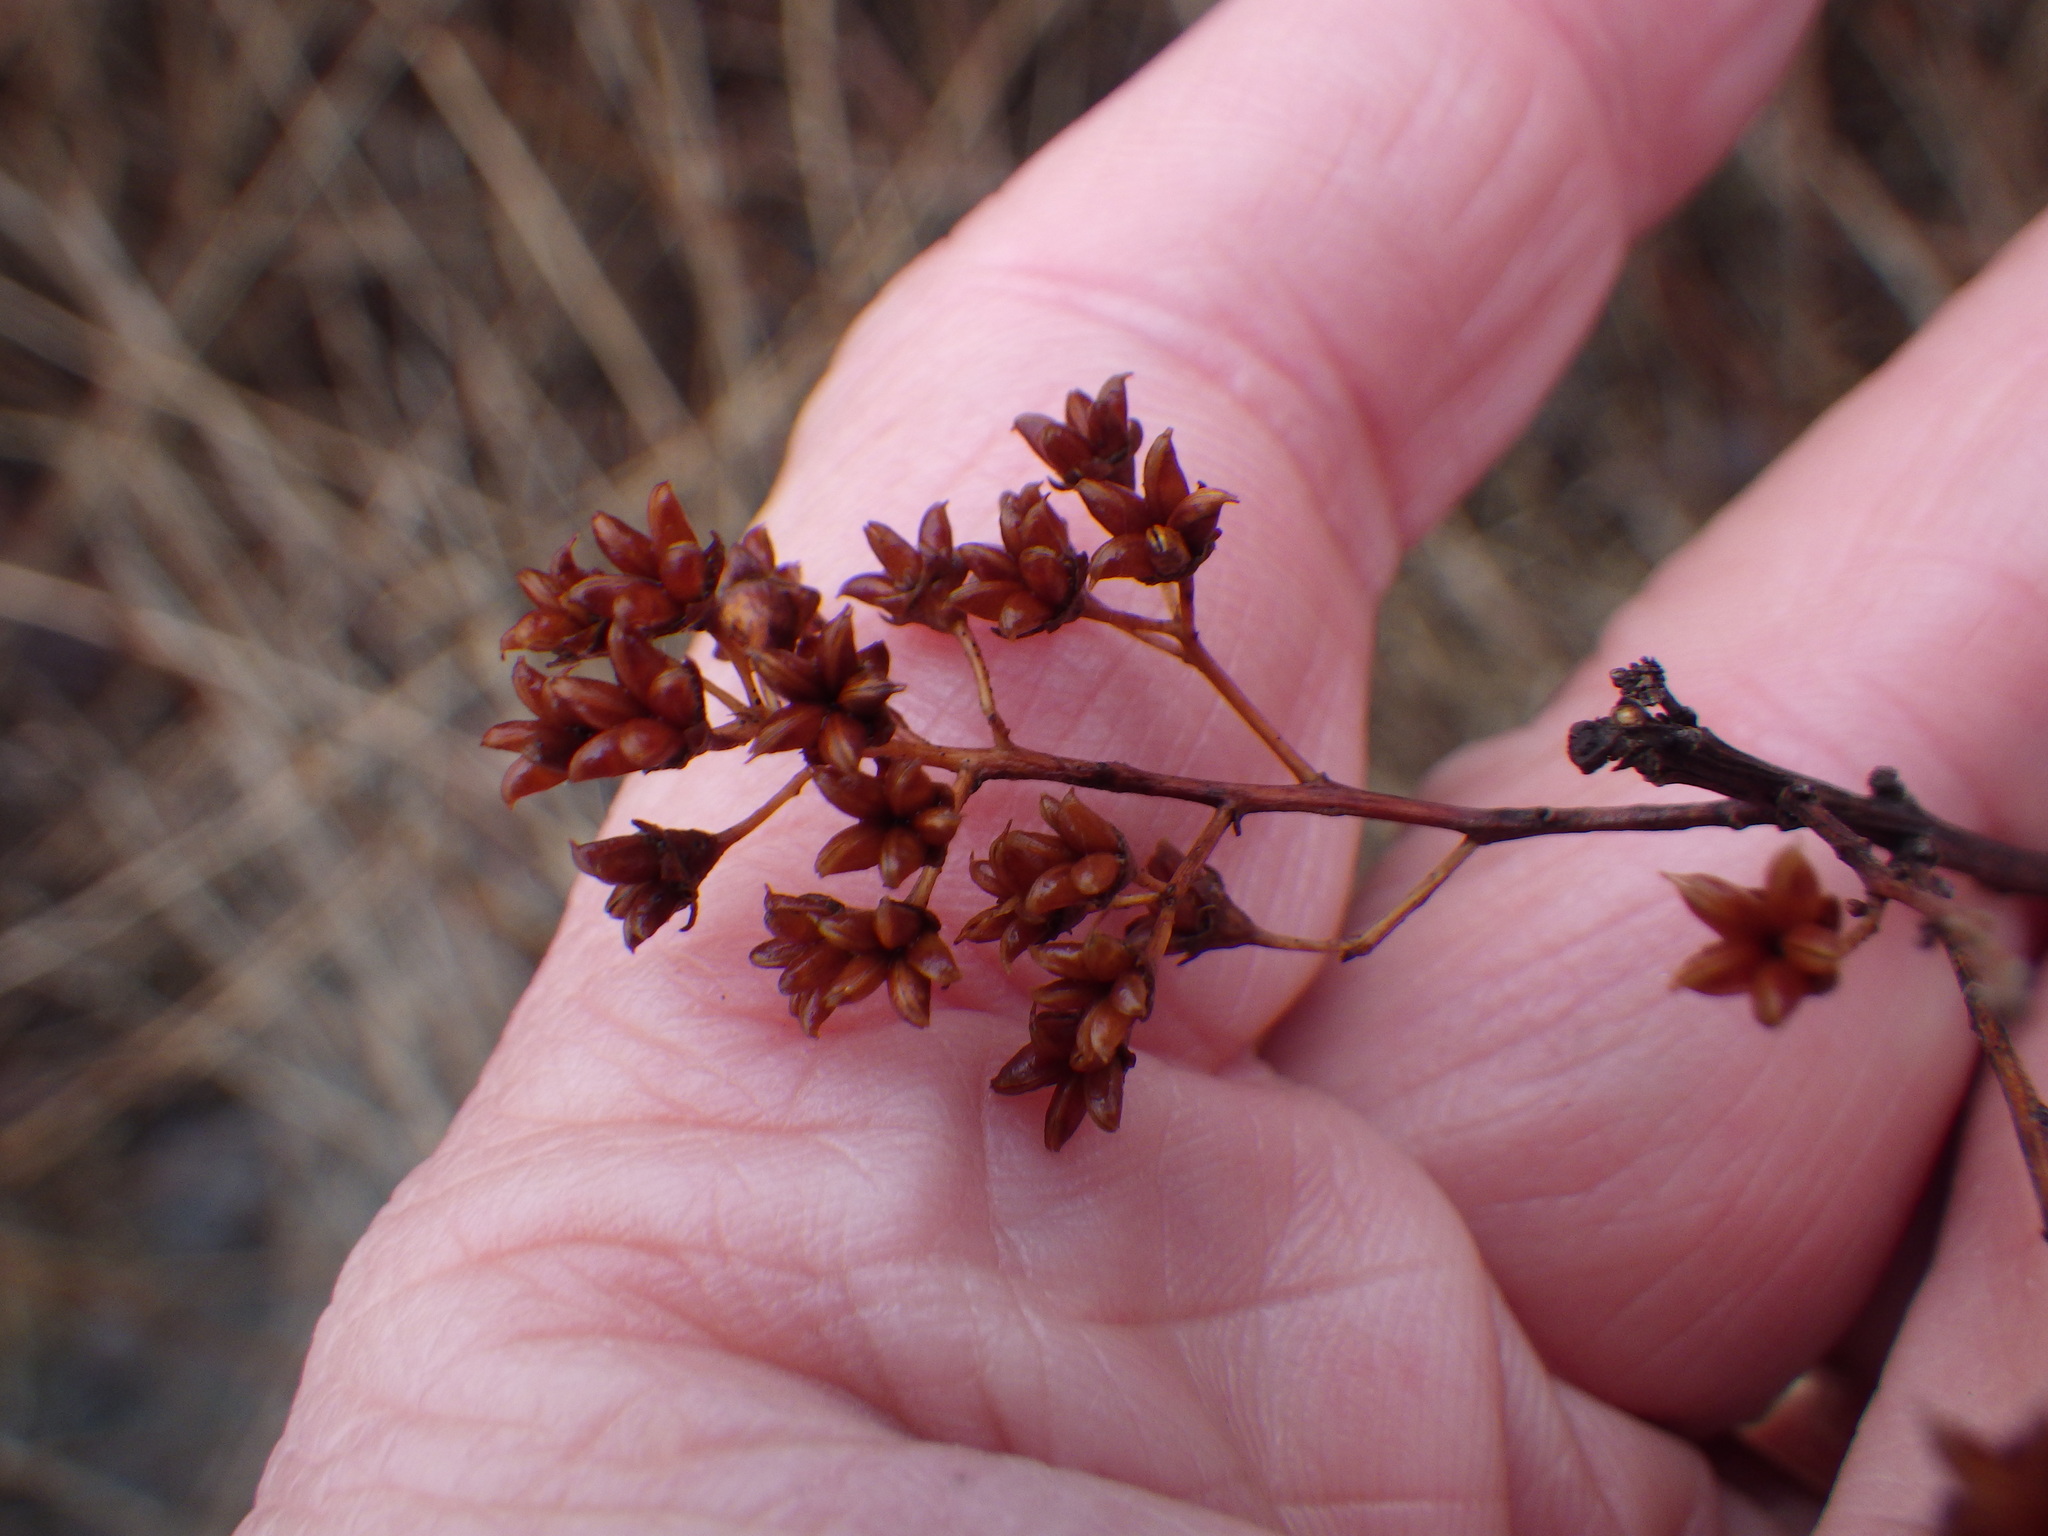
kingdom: Plantae
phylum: Tracheophyta
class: Magnoliopsida
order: Rosales
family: Rosaceae
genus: Spiraea
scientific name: Spiraea alba
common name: Pale bridewort
